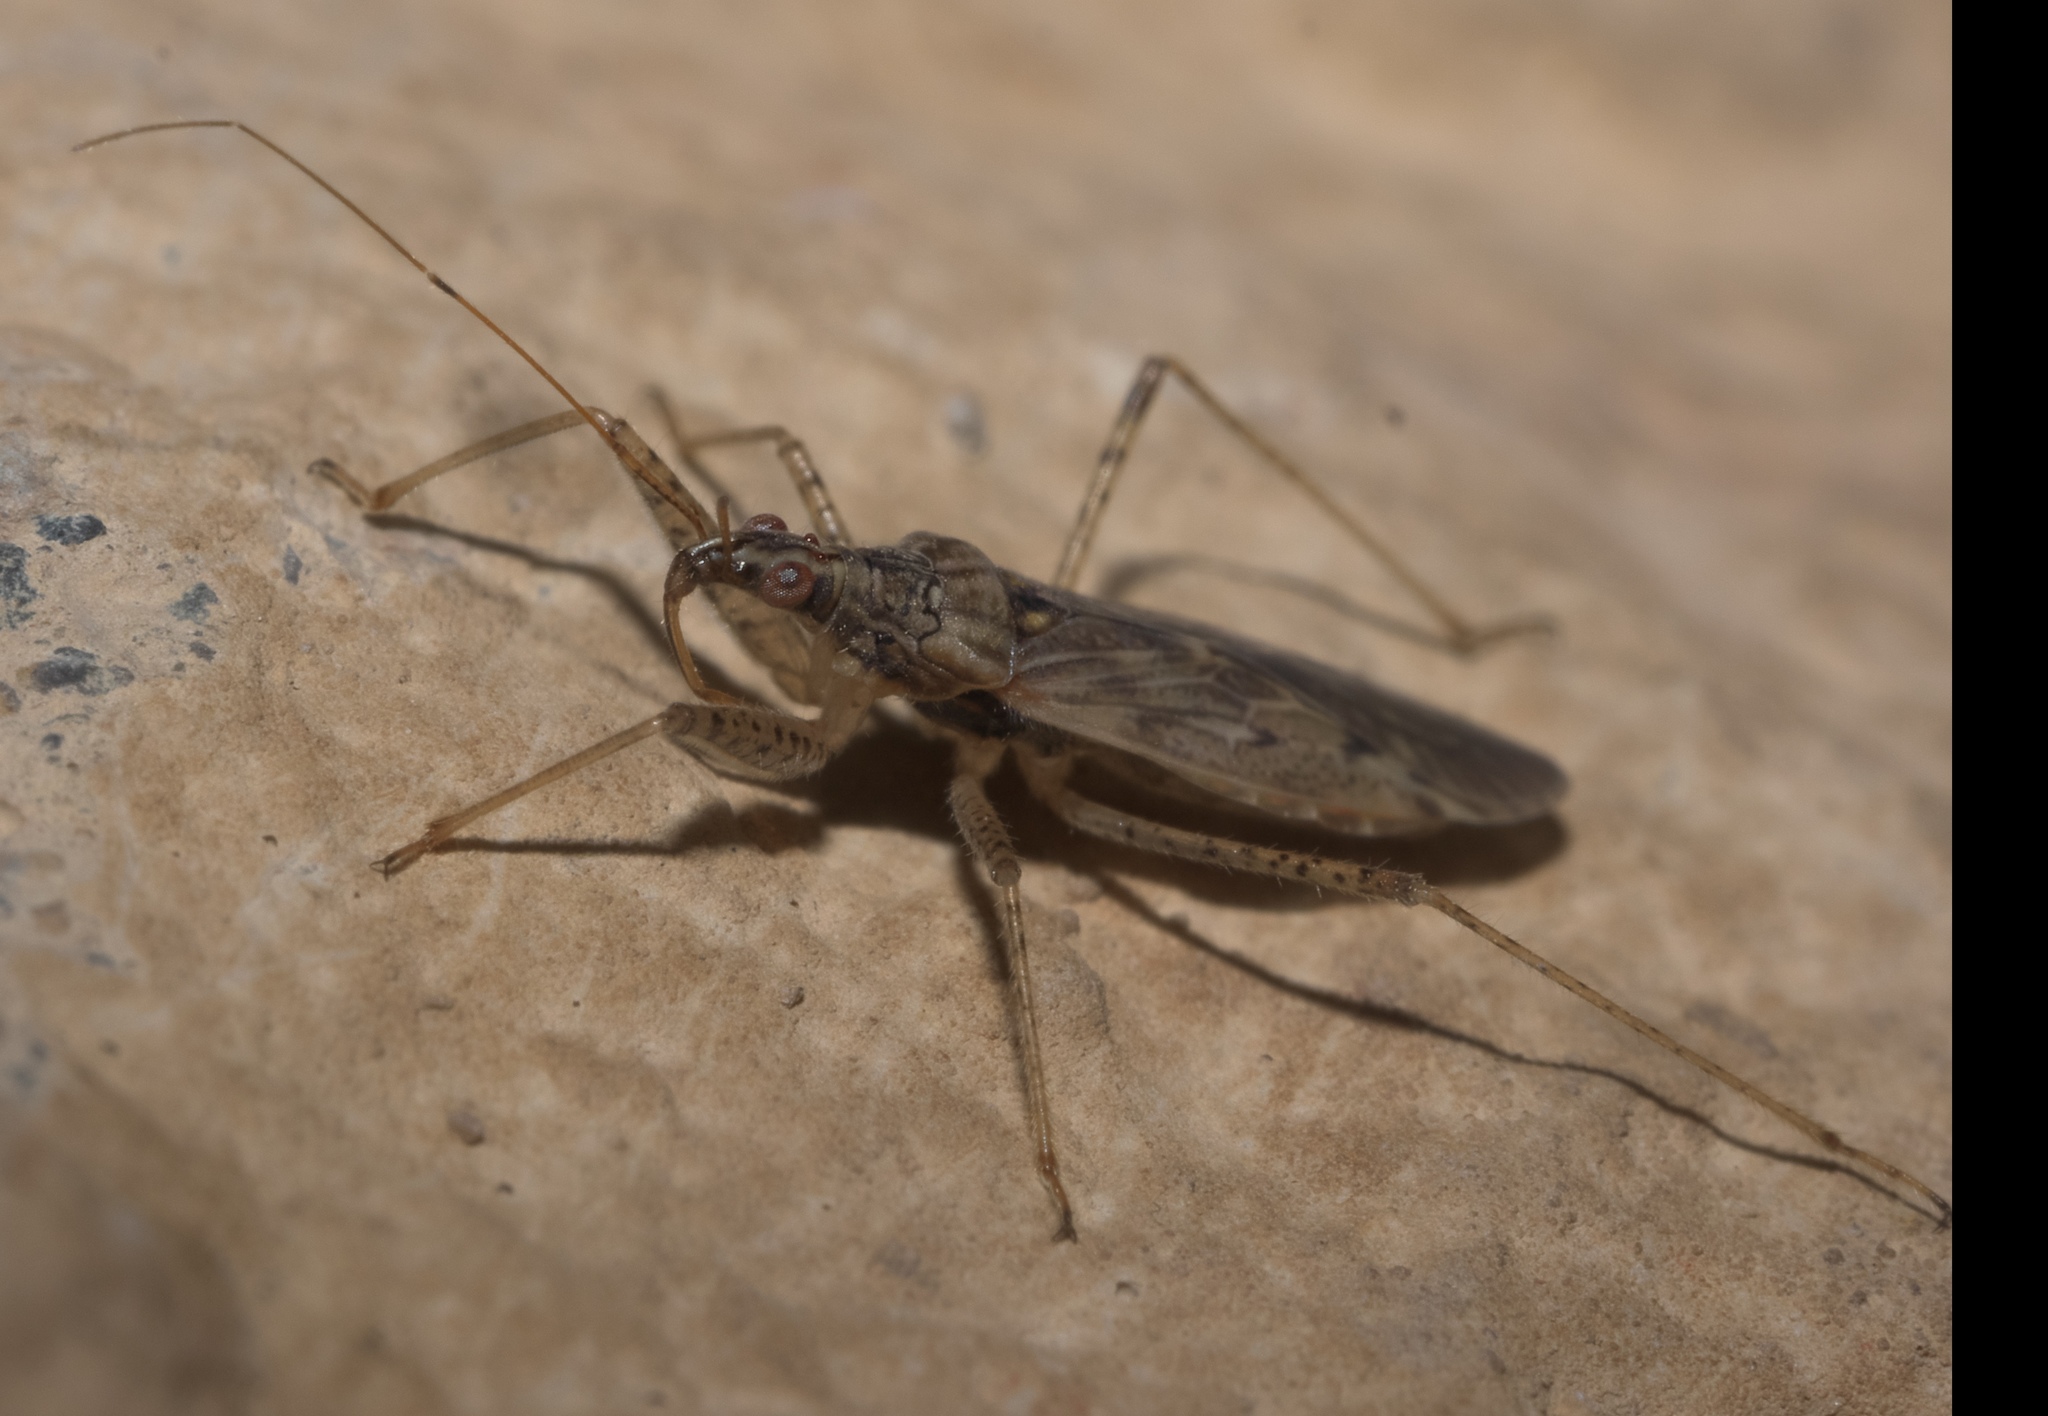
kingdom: Animalia
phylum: Arthropoda
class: Insecta
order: Hemiptera
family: Nabidae
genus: Nabis
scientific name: Nabis roseipennis
